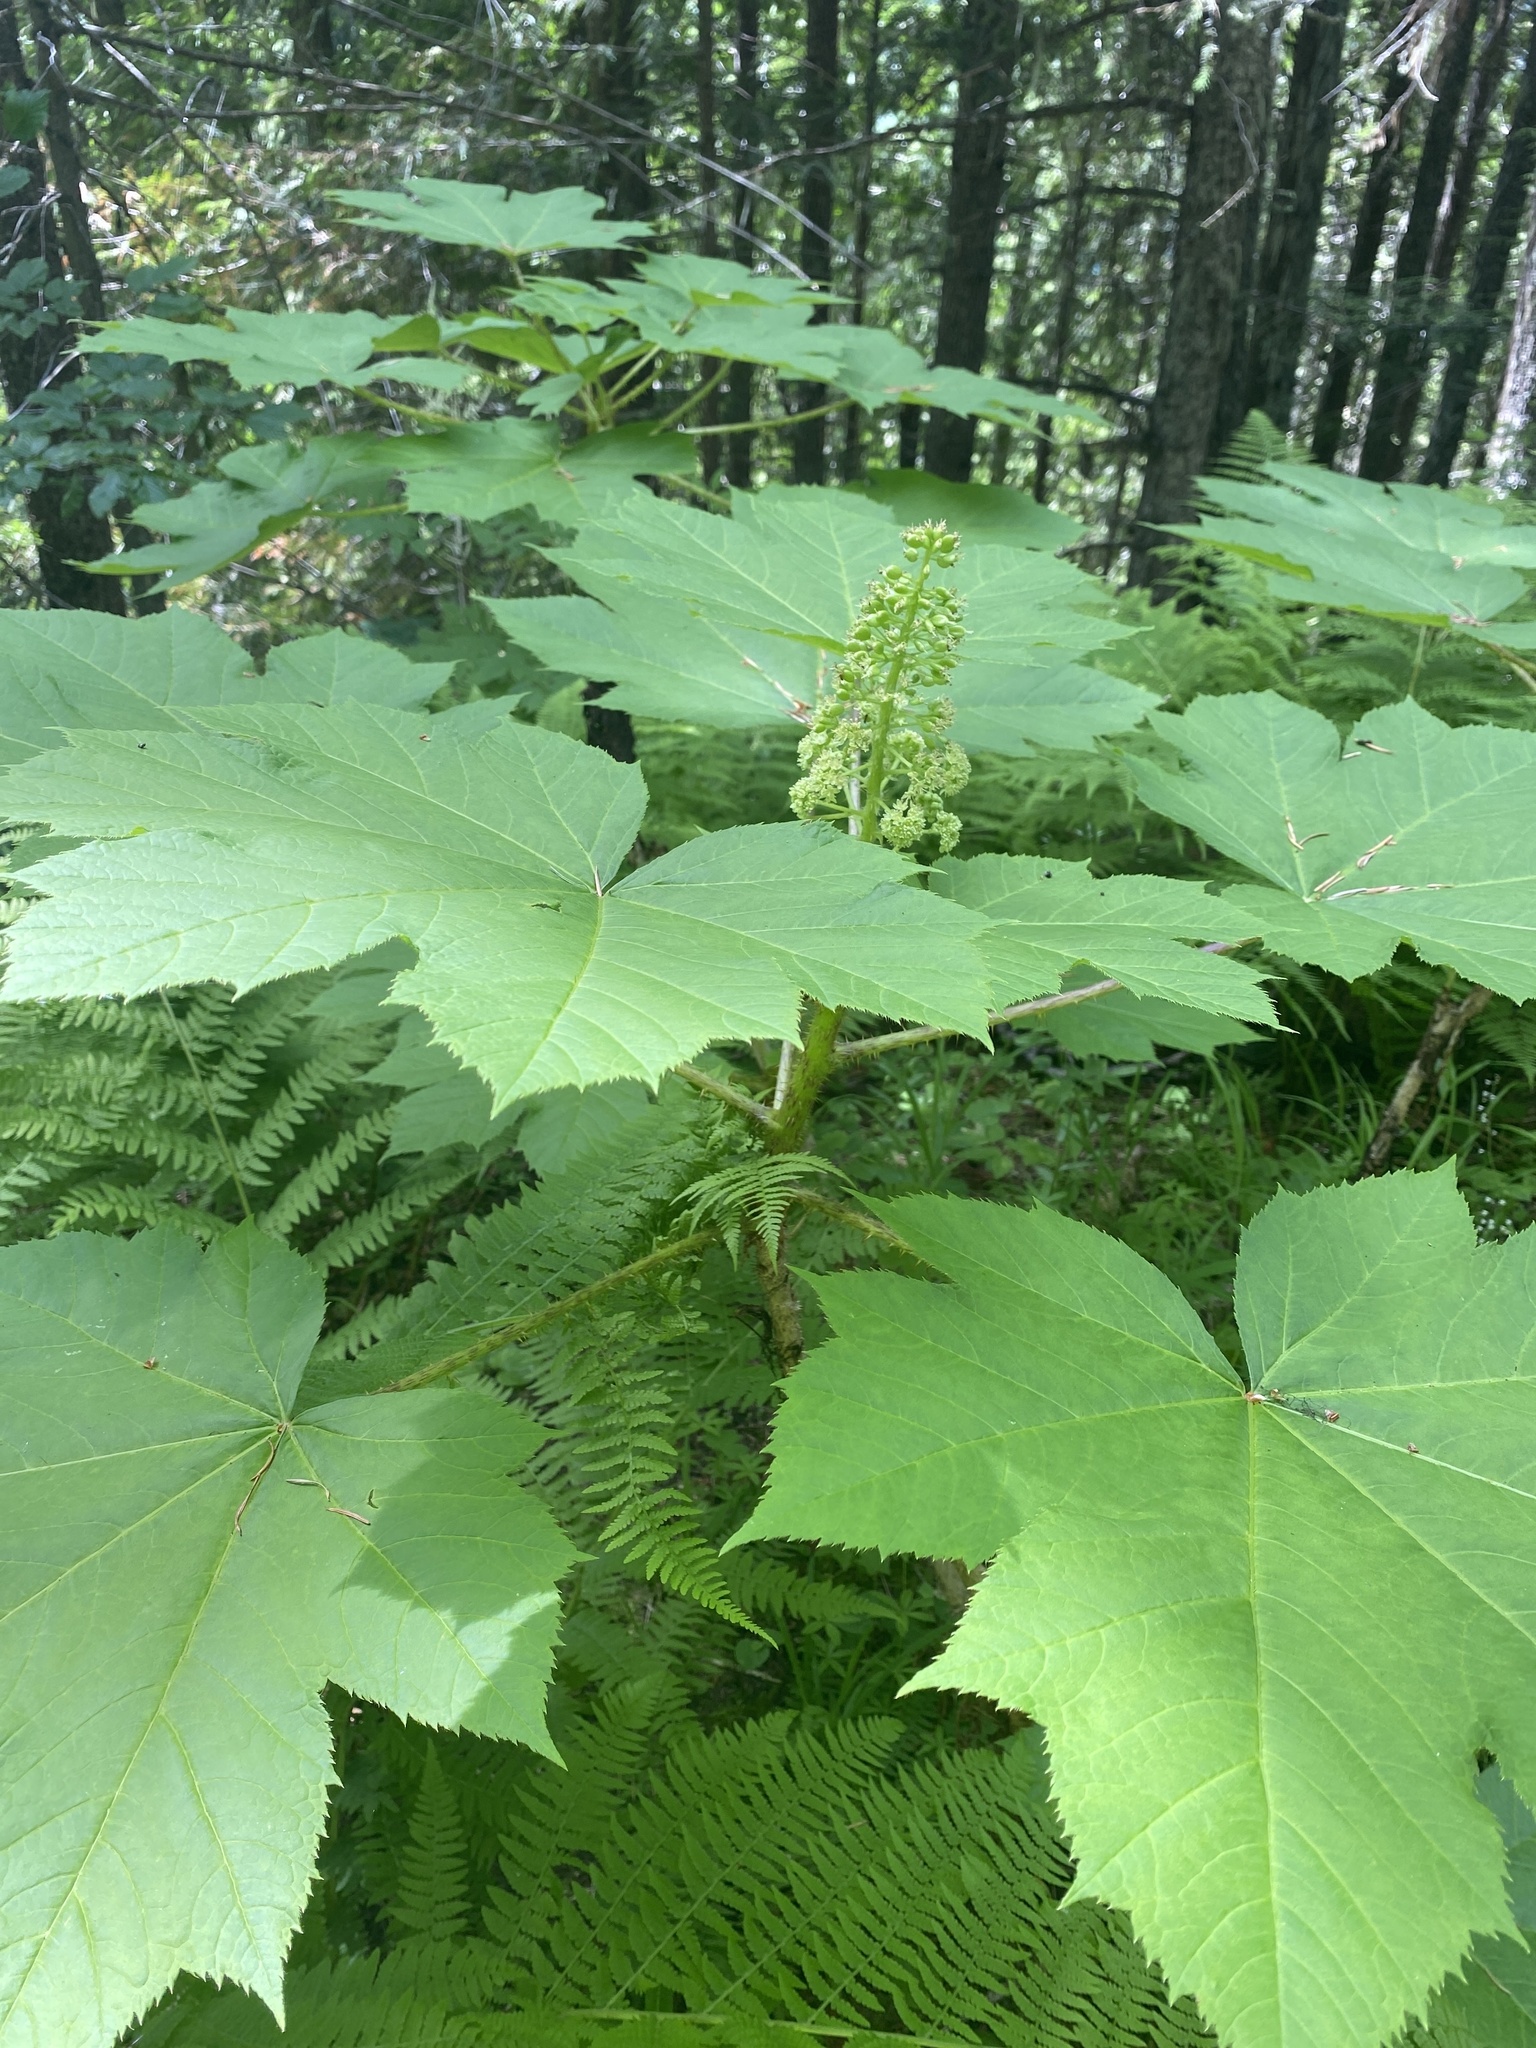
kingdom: Plantae
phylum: Tracheophyta
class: Magnoliopsida
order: Apiales
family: Araliaceae
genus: Oplopanax
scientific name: Oplopanax horridus
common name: Devil's walking-stick
